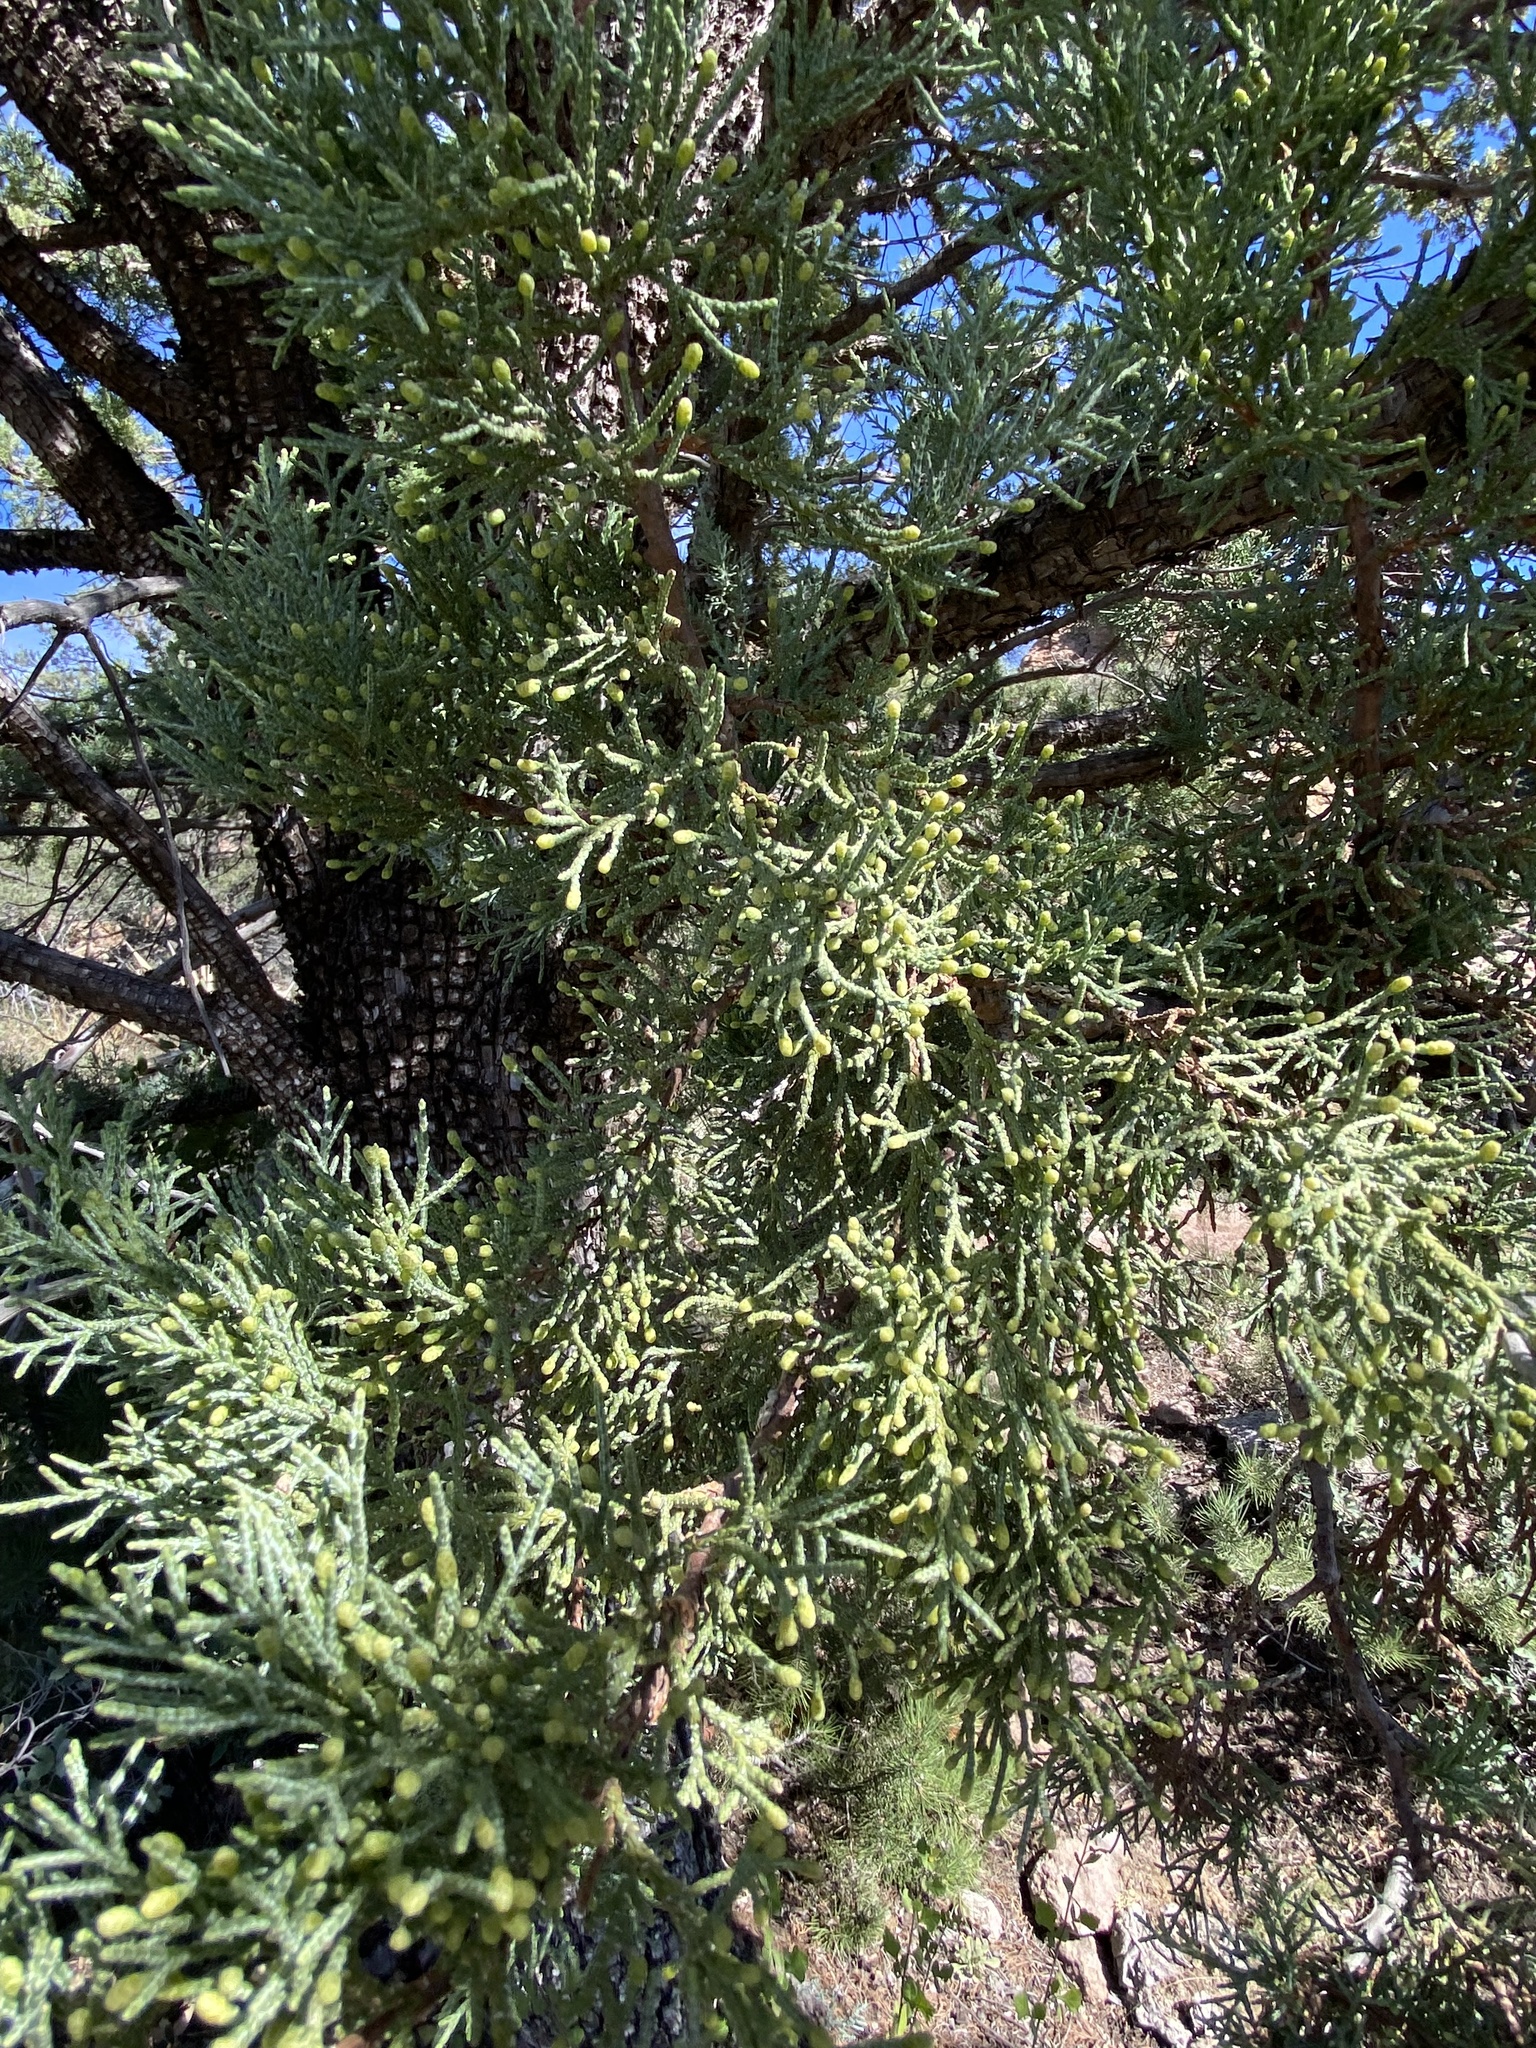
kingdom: Plantae
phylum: Tracheophyta
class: Pinopsida
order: Pinales
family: Cupressaceae
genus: Juniperus
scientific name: Juniperus deppeana
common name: Alligator juniper
